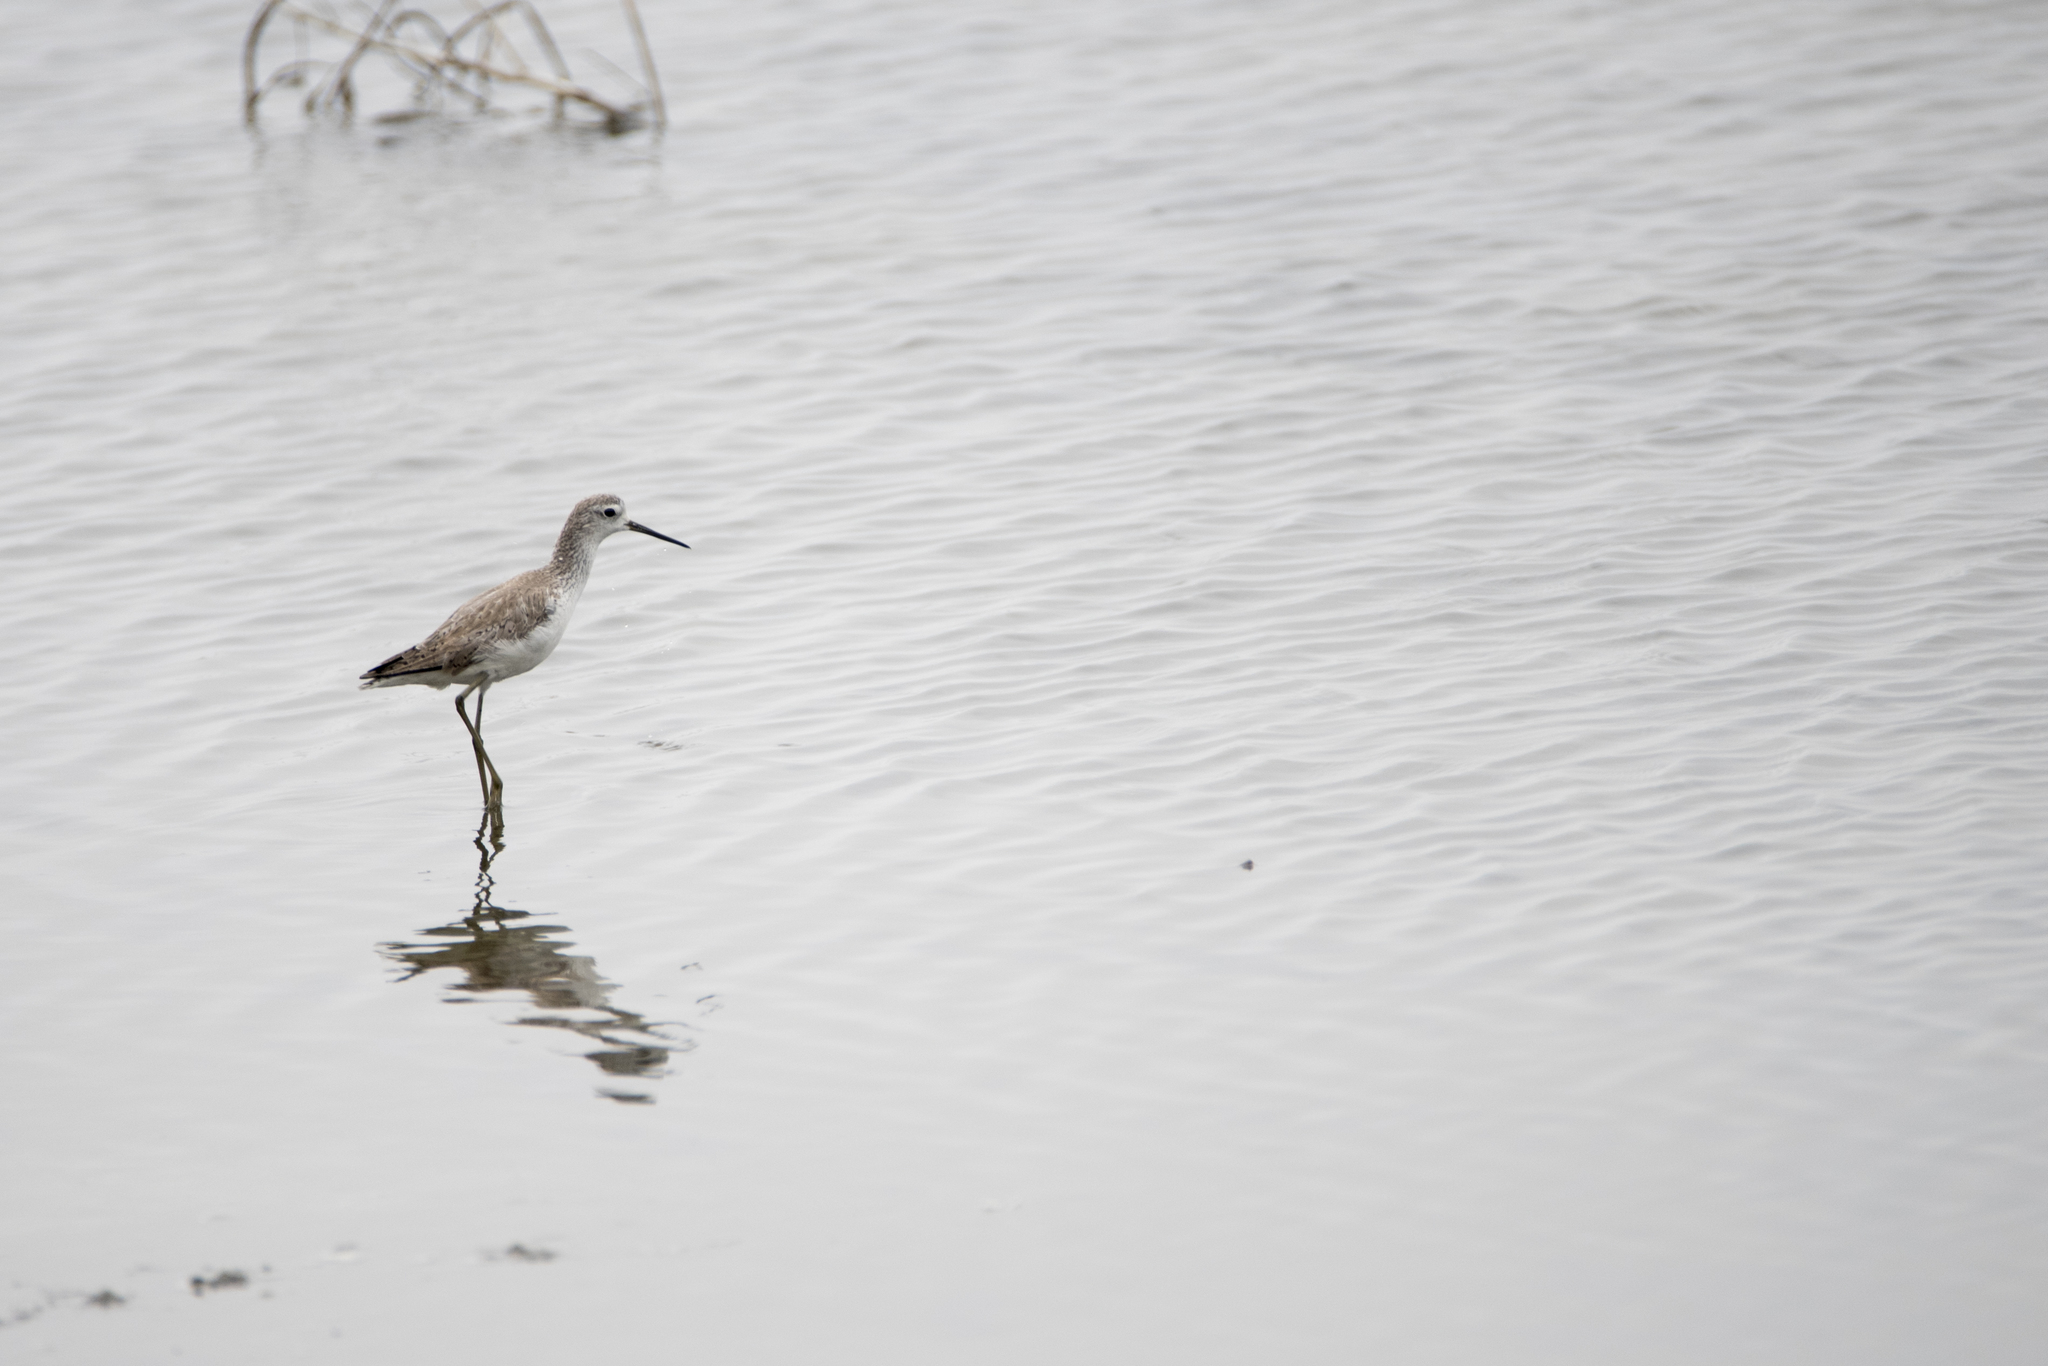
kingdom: Animalia
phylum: Chordata
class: Aves
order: Charadriiformes
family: Scolopacidae
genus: Tringa
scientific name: Tringa stagnatilis
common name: Marsh sandpiper
